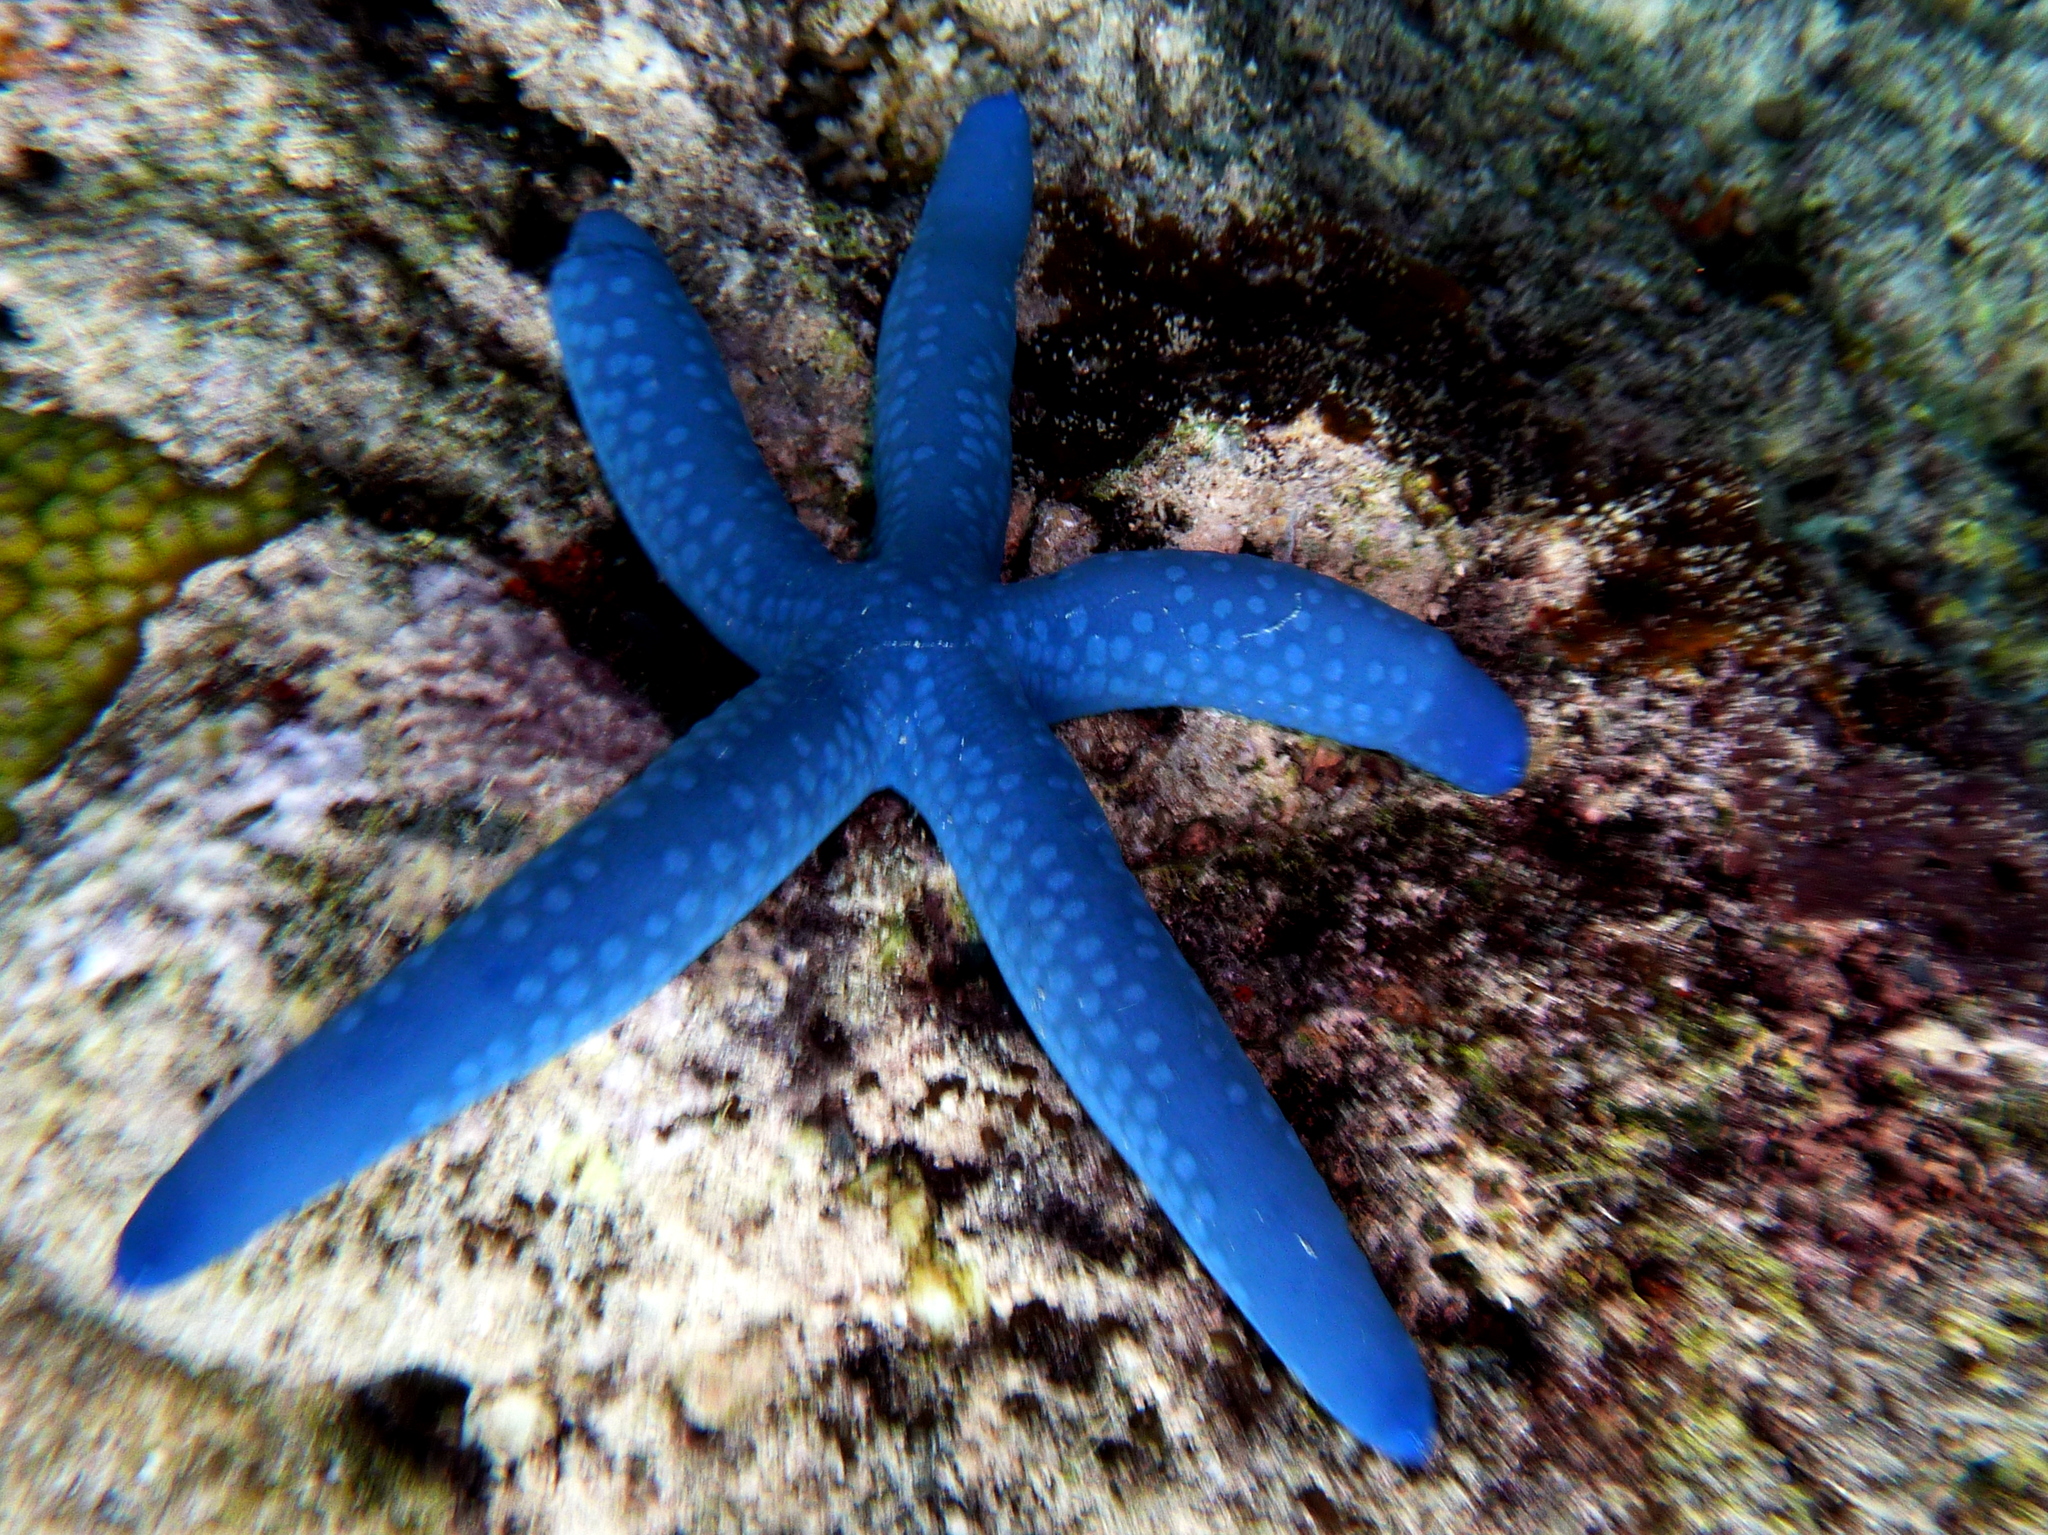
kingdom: Animalia
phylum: Echinodermata
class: Asteroidea
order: Valvatida
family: Ophidiasteridae
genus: Linckia
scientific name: Linckia laevigata
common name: Azure sea star
